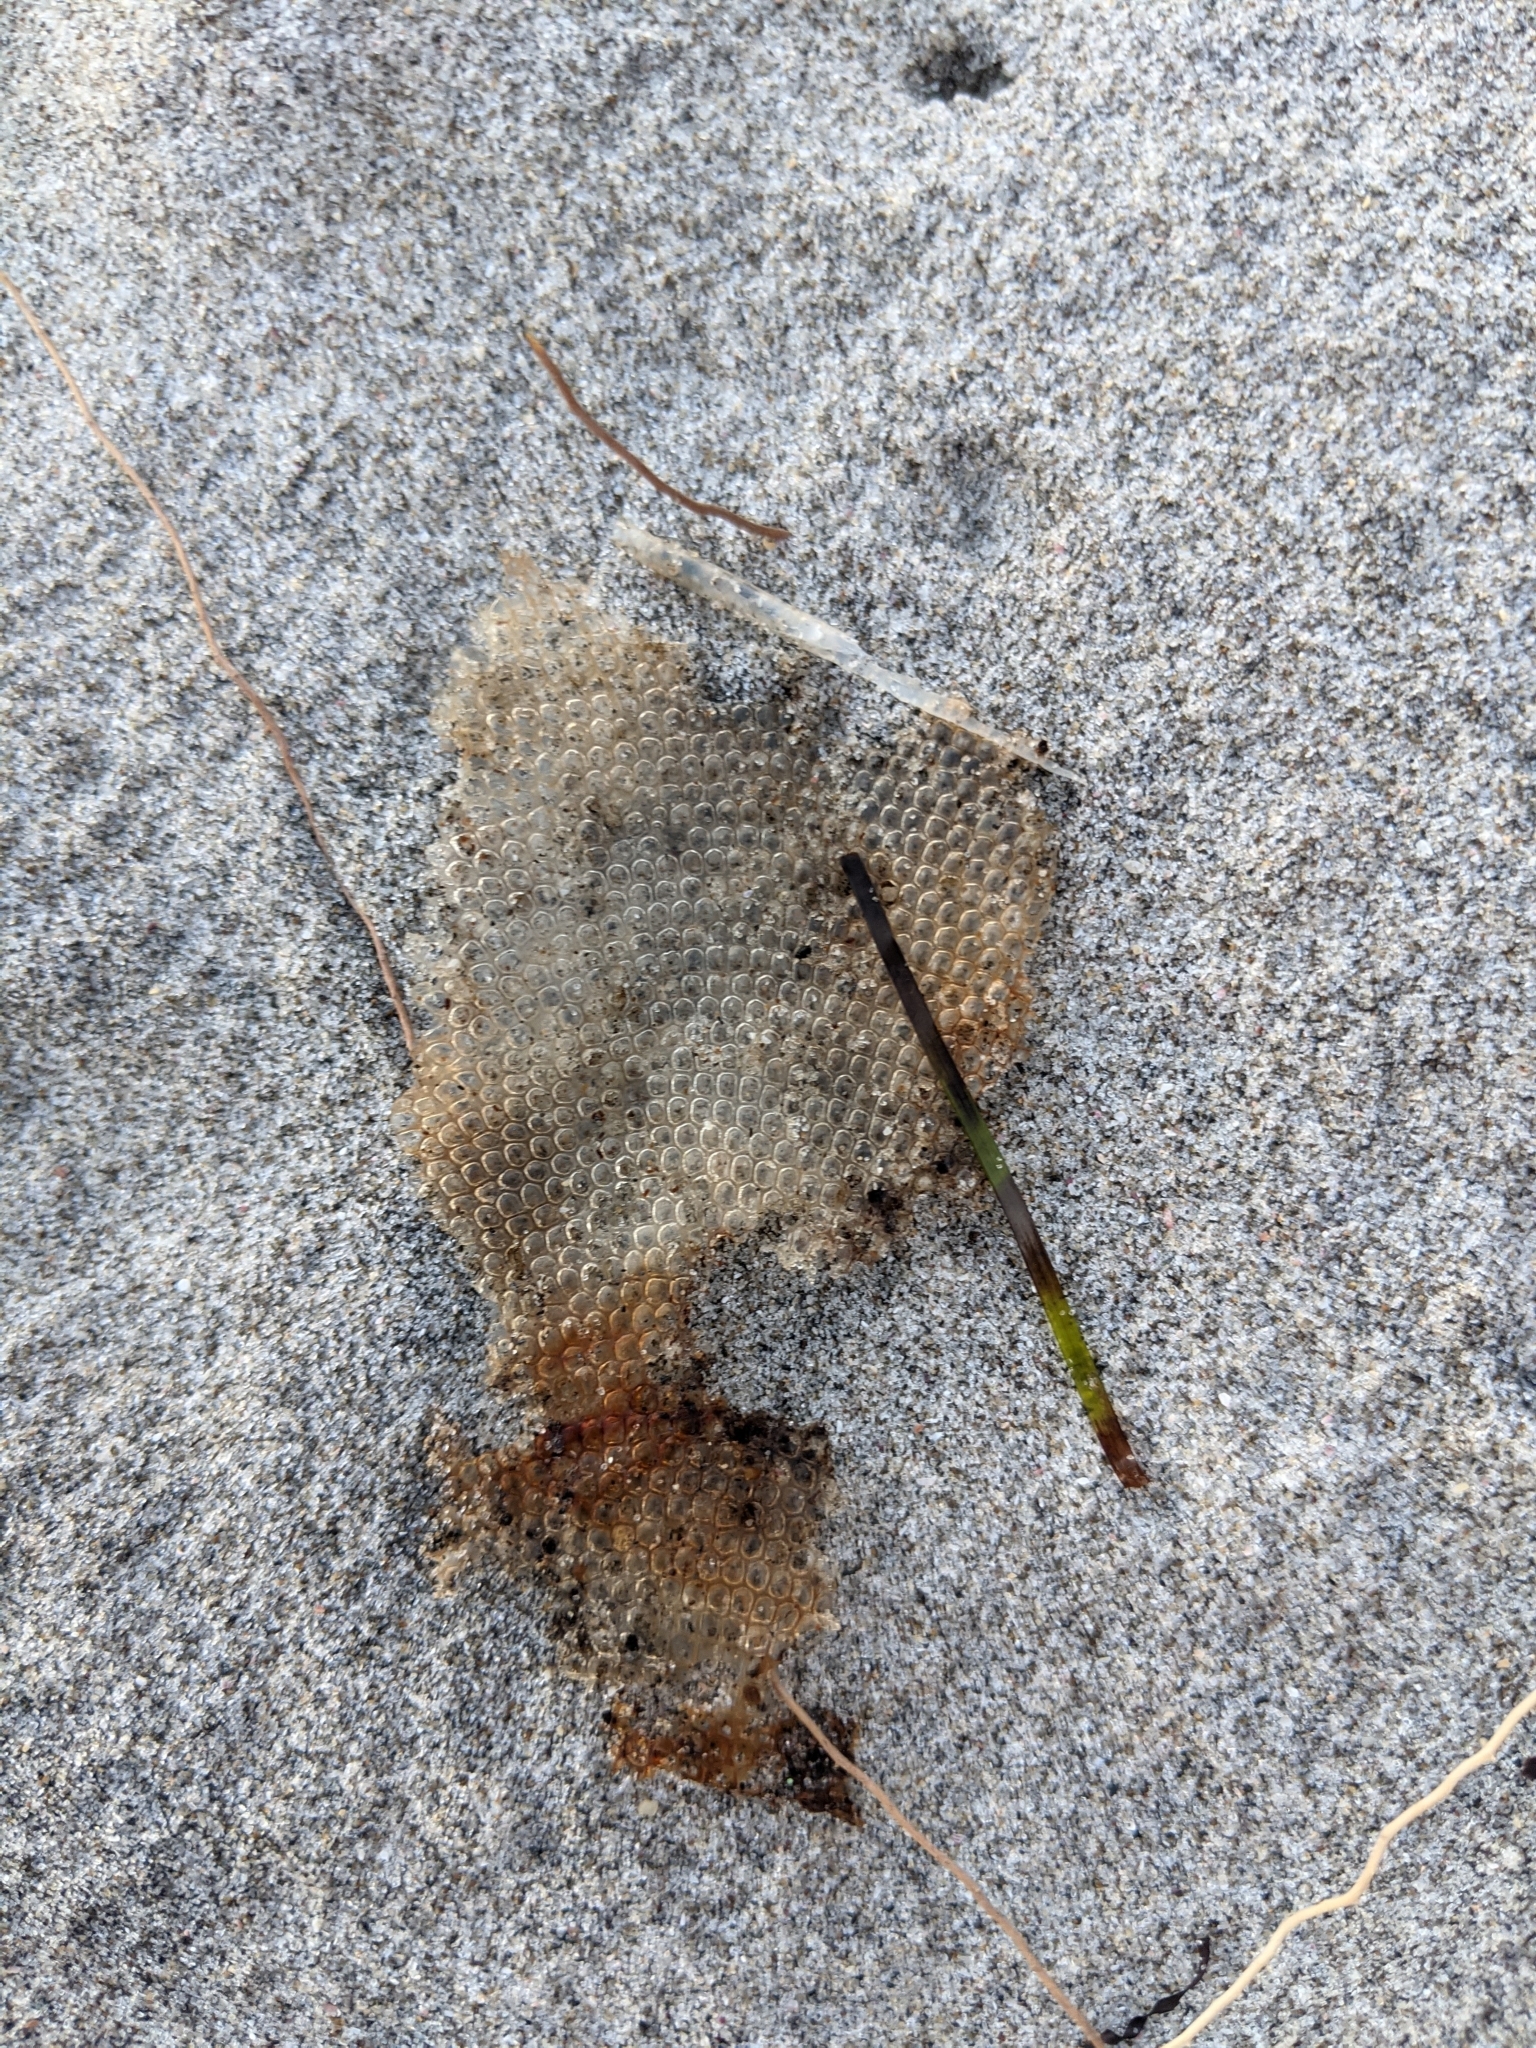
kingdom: Animalia
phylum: Mollusca
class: Gastropoda
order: Littorinimorpha
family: Tonnidae
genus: Tonna
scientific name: Tonna tankervillii
